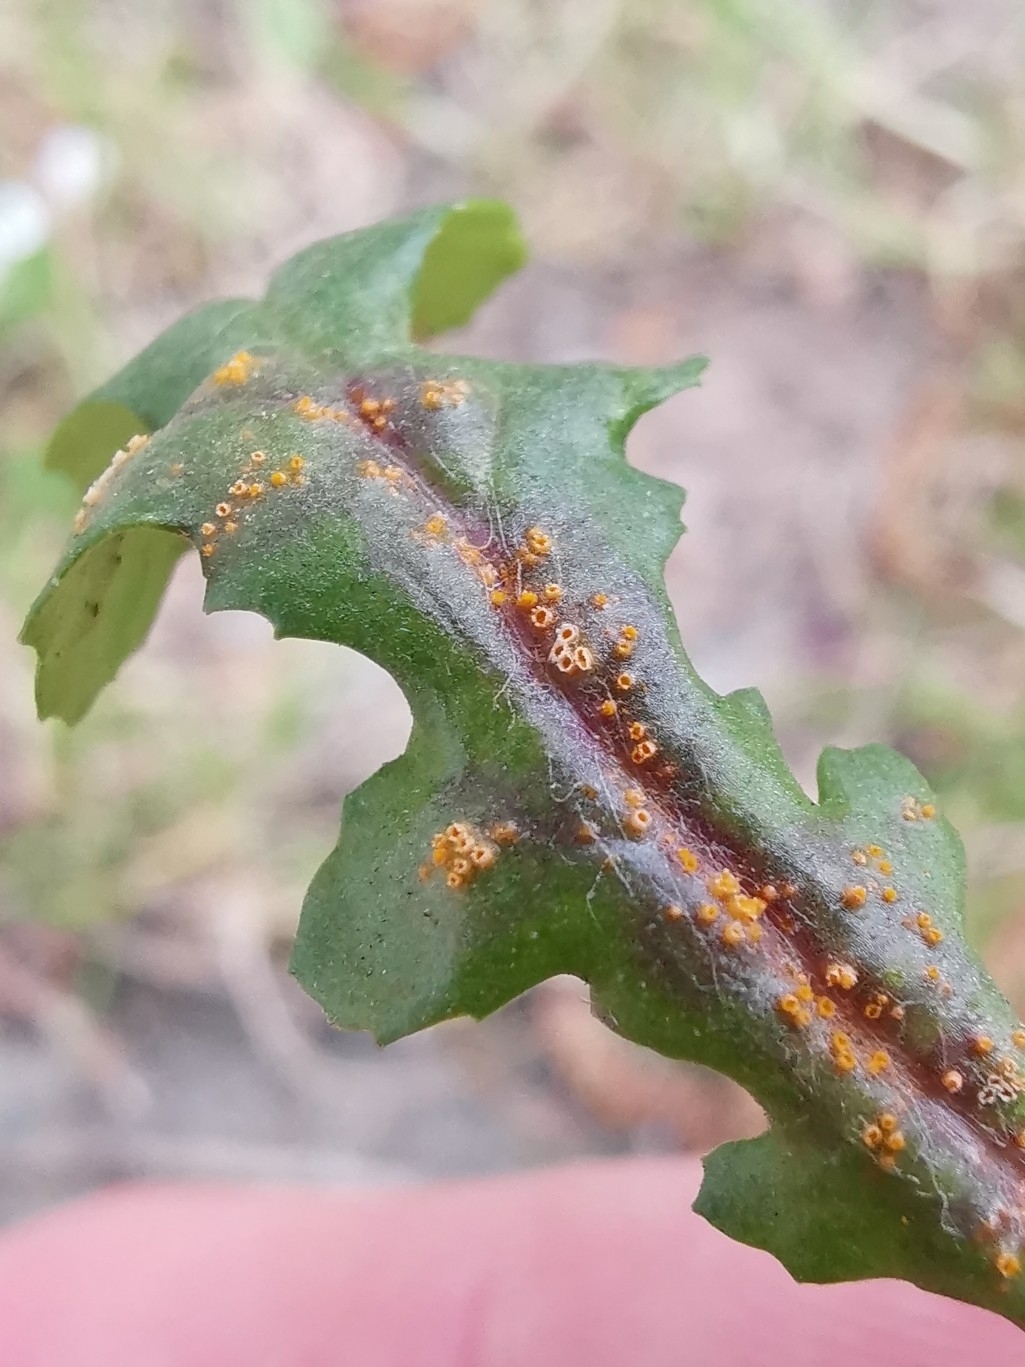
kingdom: Fungi
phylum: Basidiomycota
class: Pucciniomycetes
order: Pucciniales
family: Pucciniaceae
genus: Puccinia
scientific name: Puccinia lagenophorae
